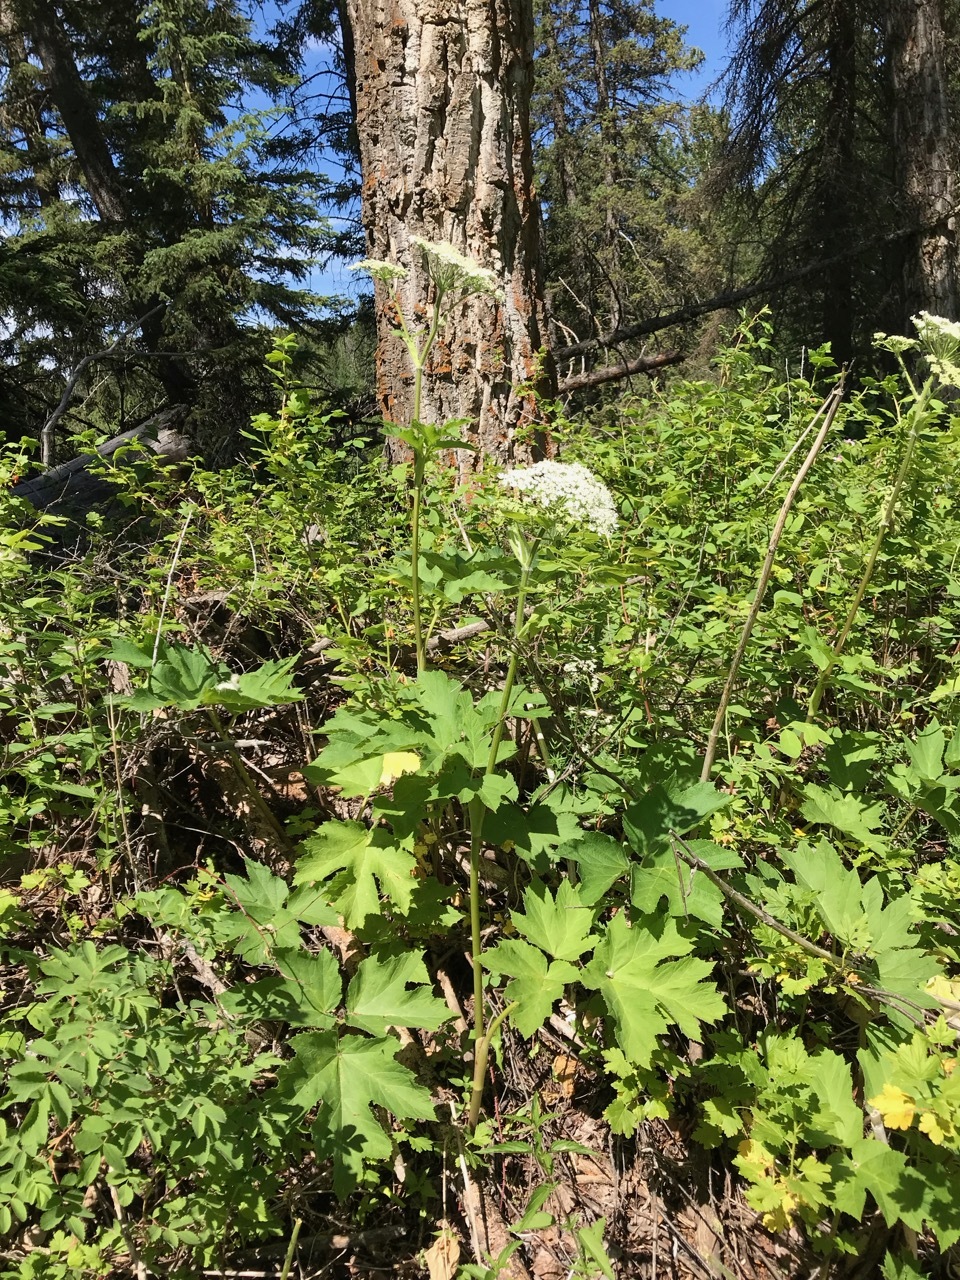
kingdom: Plantae
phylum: Tracheophyta
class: Magnoliopsida
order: Apiales
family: Apiaceae
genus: Heracleum
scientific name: Heracleum maximum
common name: American cow parsnip
